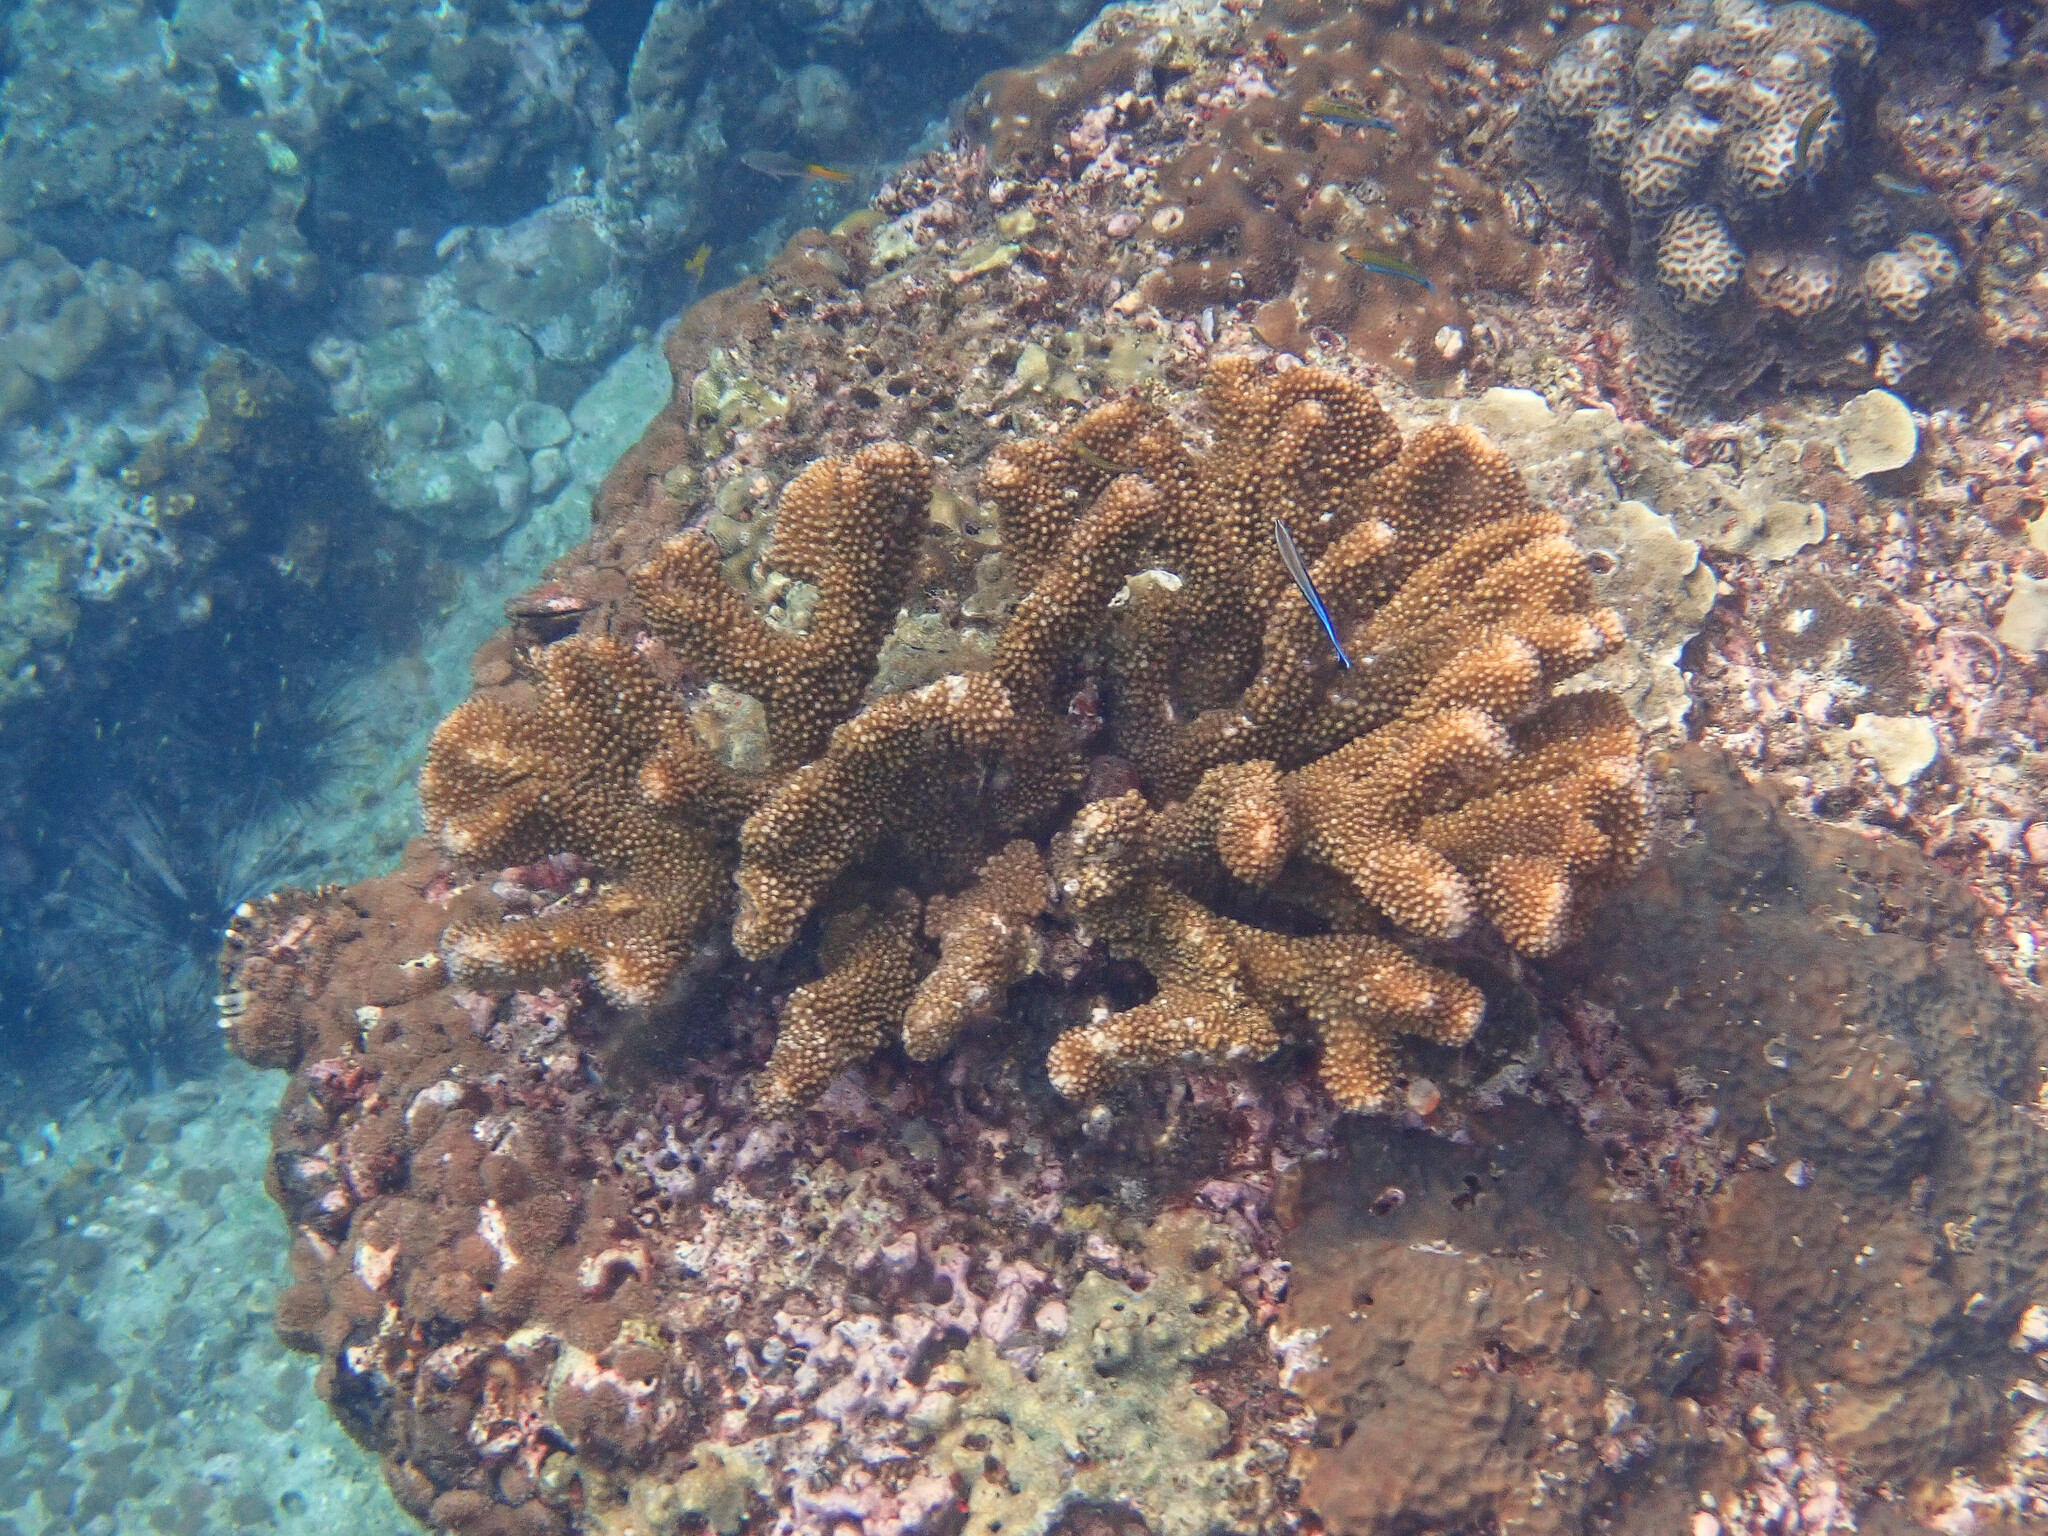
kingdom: Animalia
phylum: Cnidaria
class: Anthozoa
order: Scleractinia
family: Pocilloporidae
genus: Pocillopora
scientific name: Pocillopora grandis
